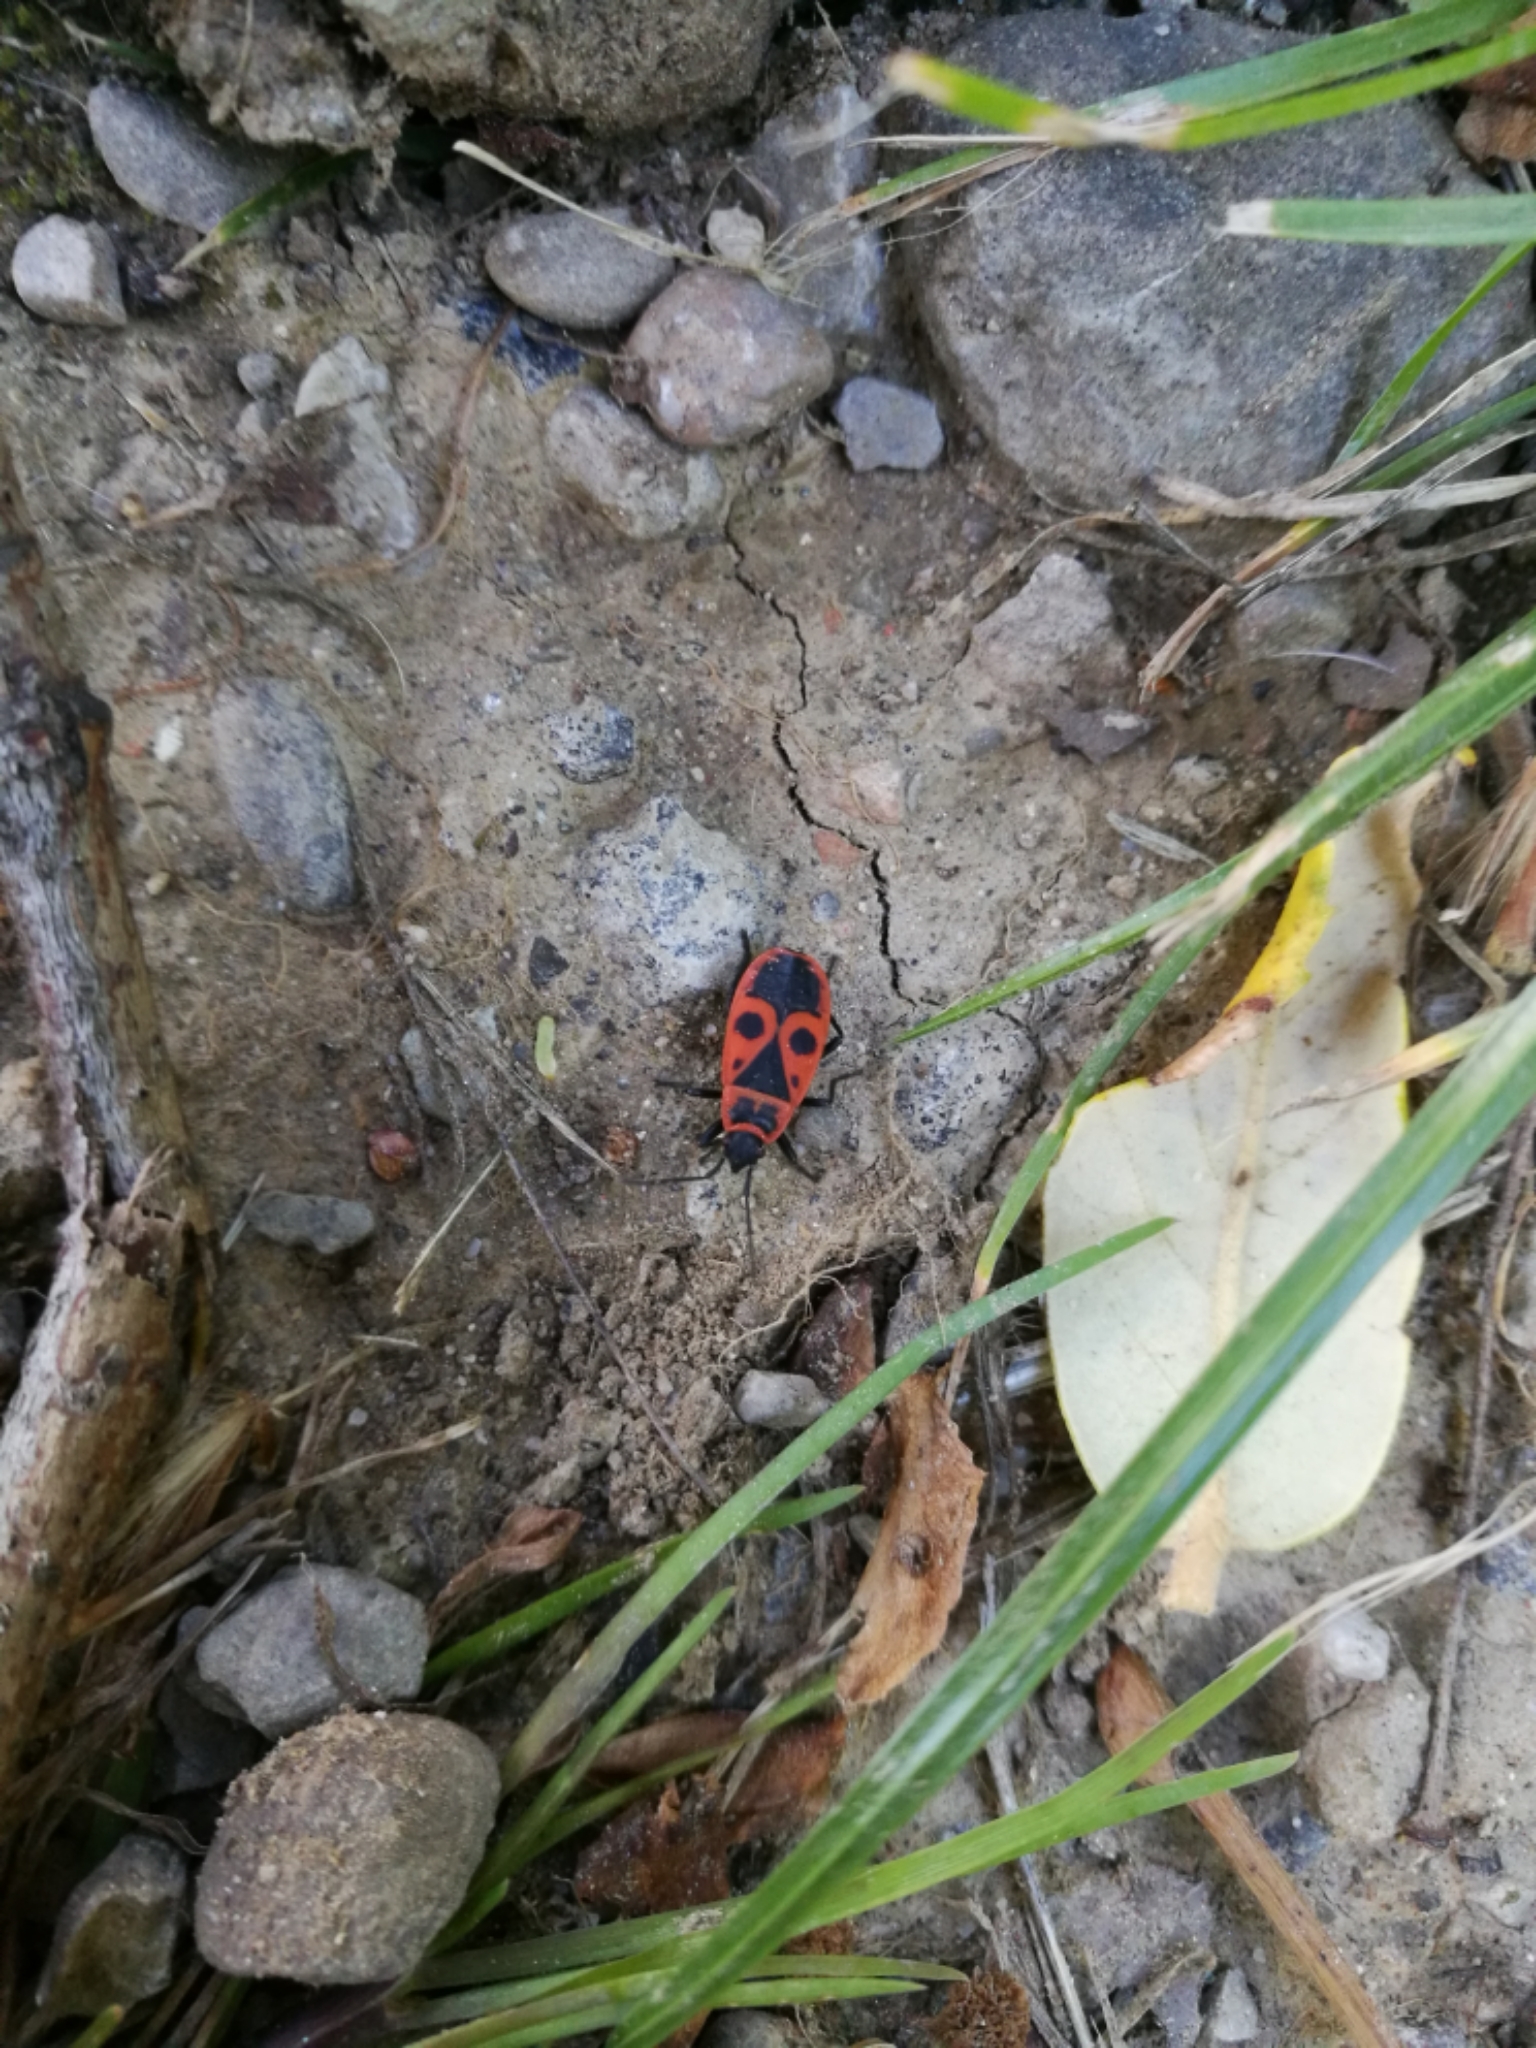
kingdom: Animalia
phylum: Arthropoda
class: Insecta
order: Hemiptera
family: Pyrrhocoridae
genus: Pyrrhocoris
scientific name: Pyrrhocoris apterus
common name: Firebug
